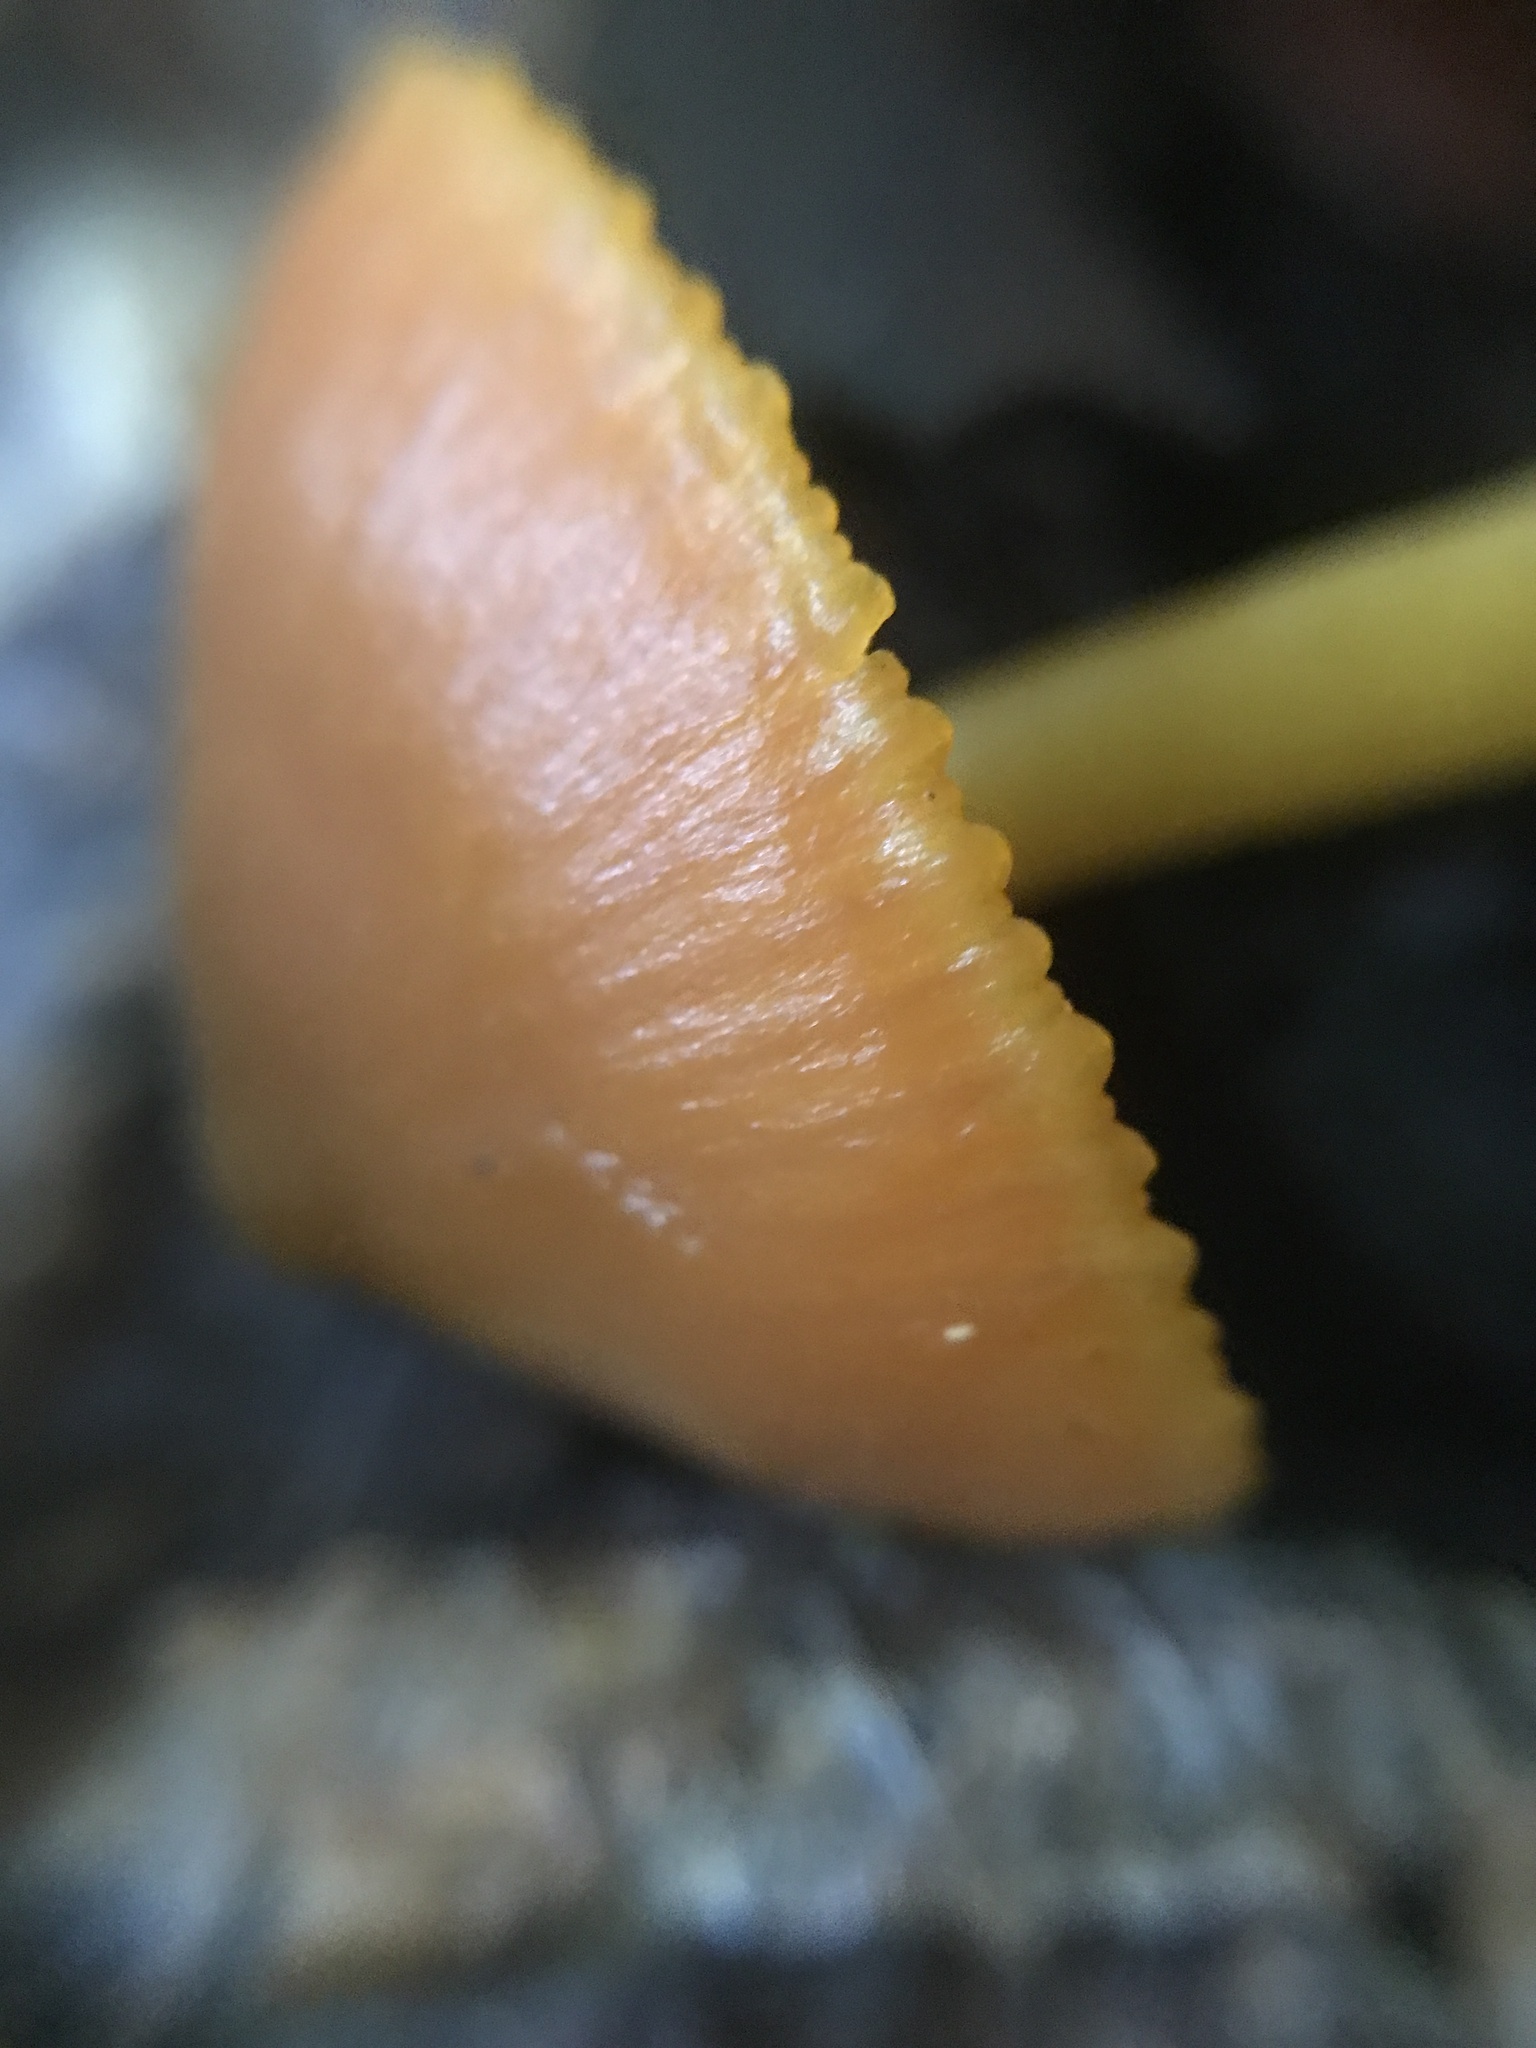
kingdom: Fungi
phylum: Basidiomycota
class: Agaricomycetes
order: Agaricales
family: Hygrophoraceae
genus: Humidicutis
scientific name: Humidicutis marginata
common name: Orange gilled waxcap
